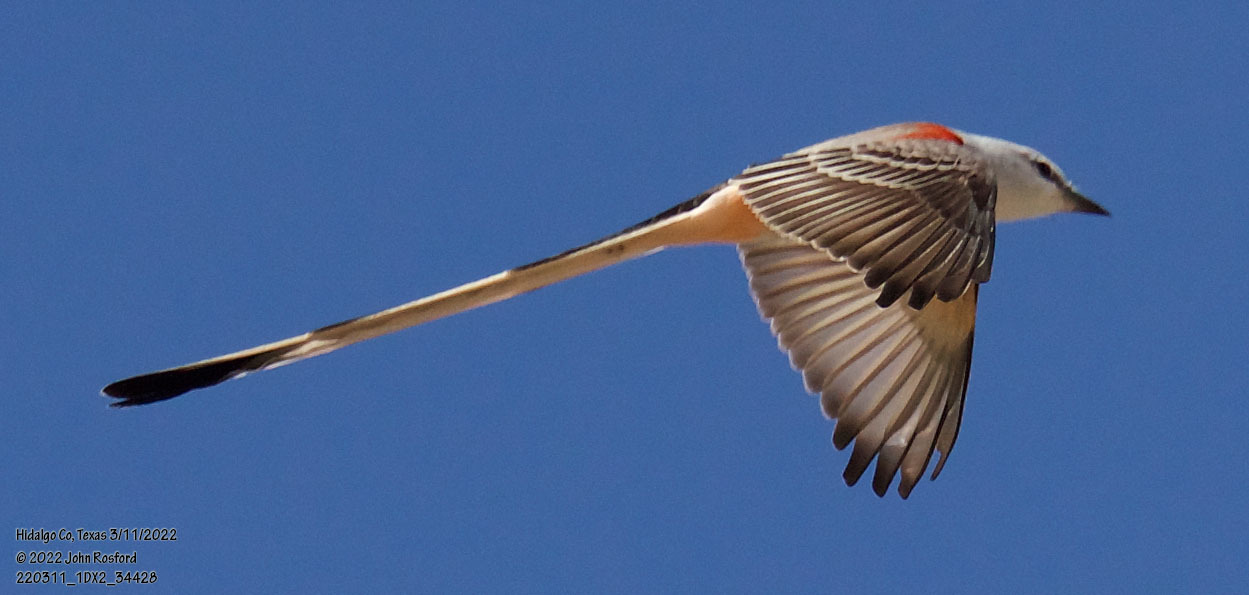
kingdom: Animalia
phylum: Chordata
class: Aves
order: Passeriformes
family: Tyrannidae
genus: Tyrannus
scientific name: Tyrannus forficatus
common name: Scissor-tailed flycatcher
